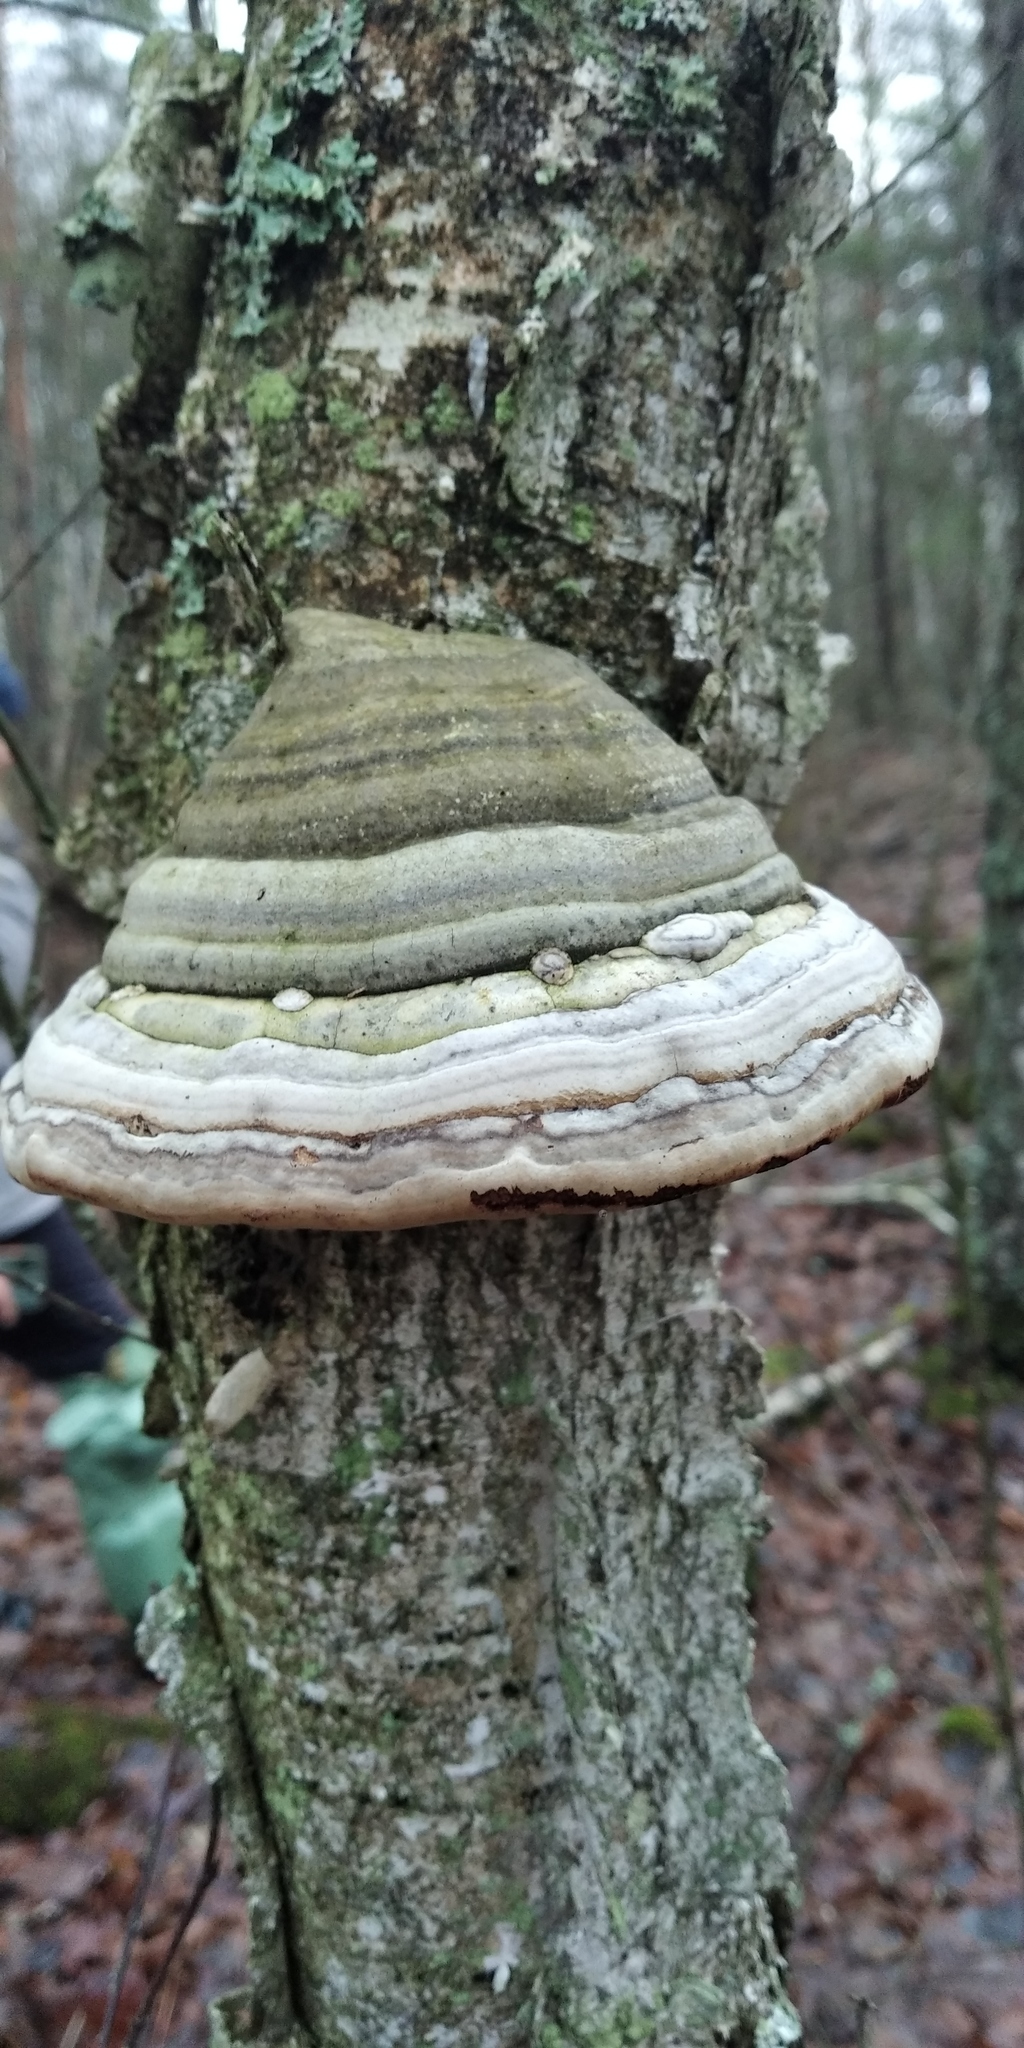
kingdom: Fungi
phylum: Basidiomycota
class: Agaricomycetes
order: Polyporales
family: Polyporaceae
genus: Fomes
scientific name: Fomes fomentarius
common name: Hoof fungus
